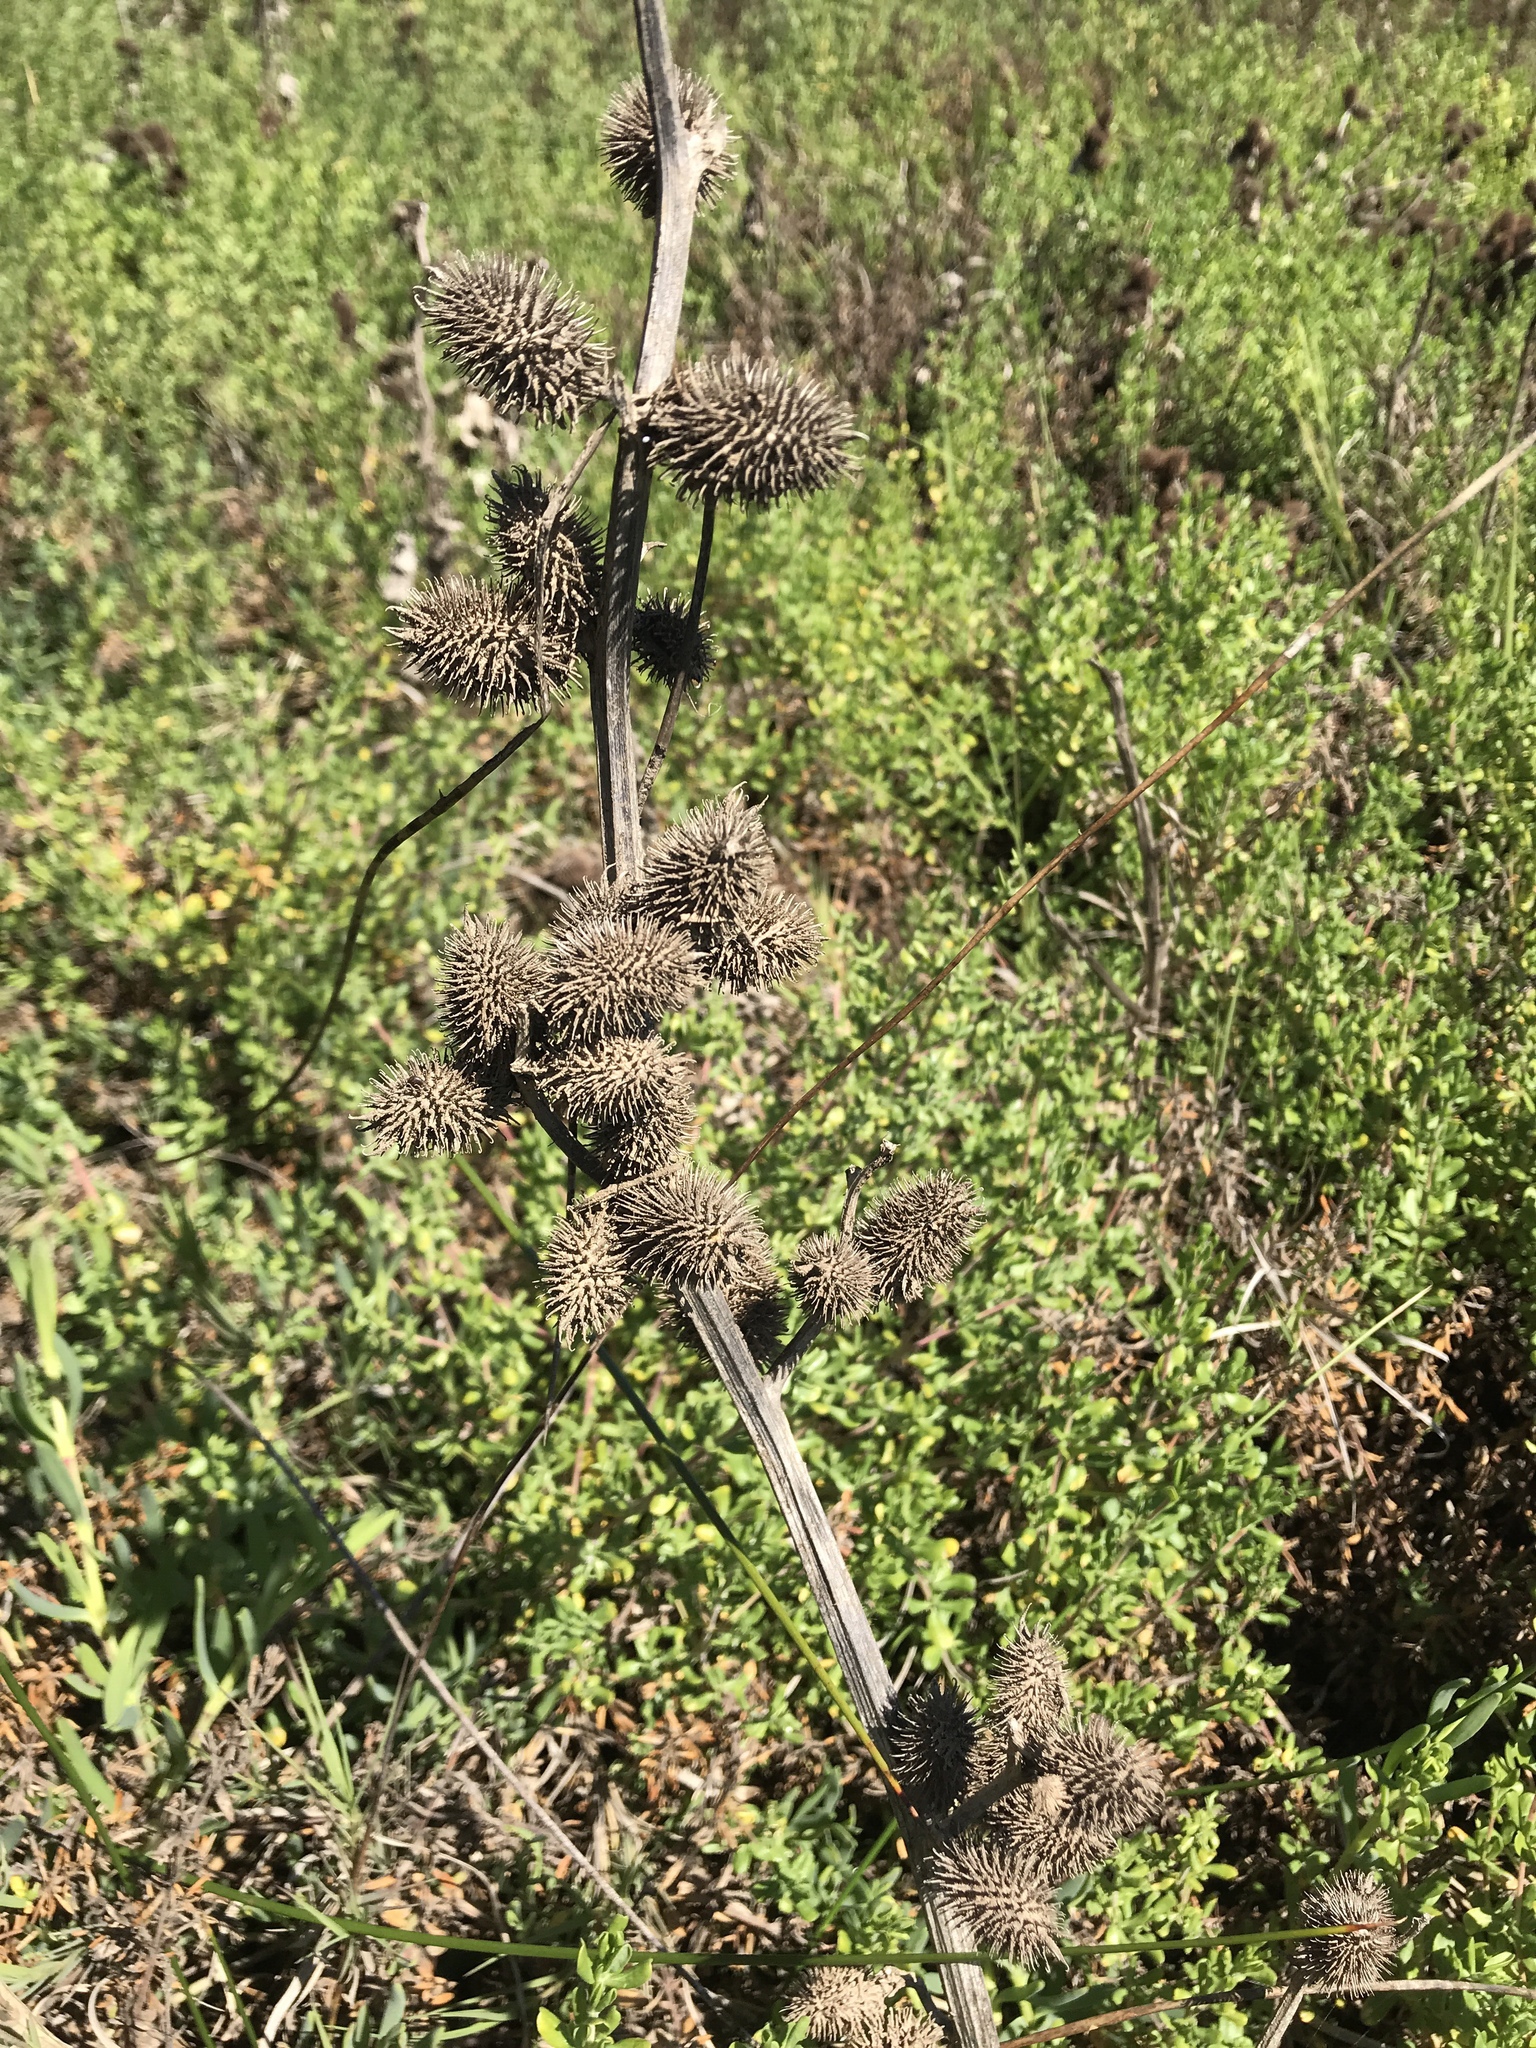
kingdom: Plantae
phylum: Tracheophyta
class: Magnoliopsida
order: Asterales
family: Asteraceae
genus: Xanthium
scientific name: Xanthium strumarium
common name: Rough cocklebur
